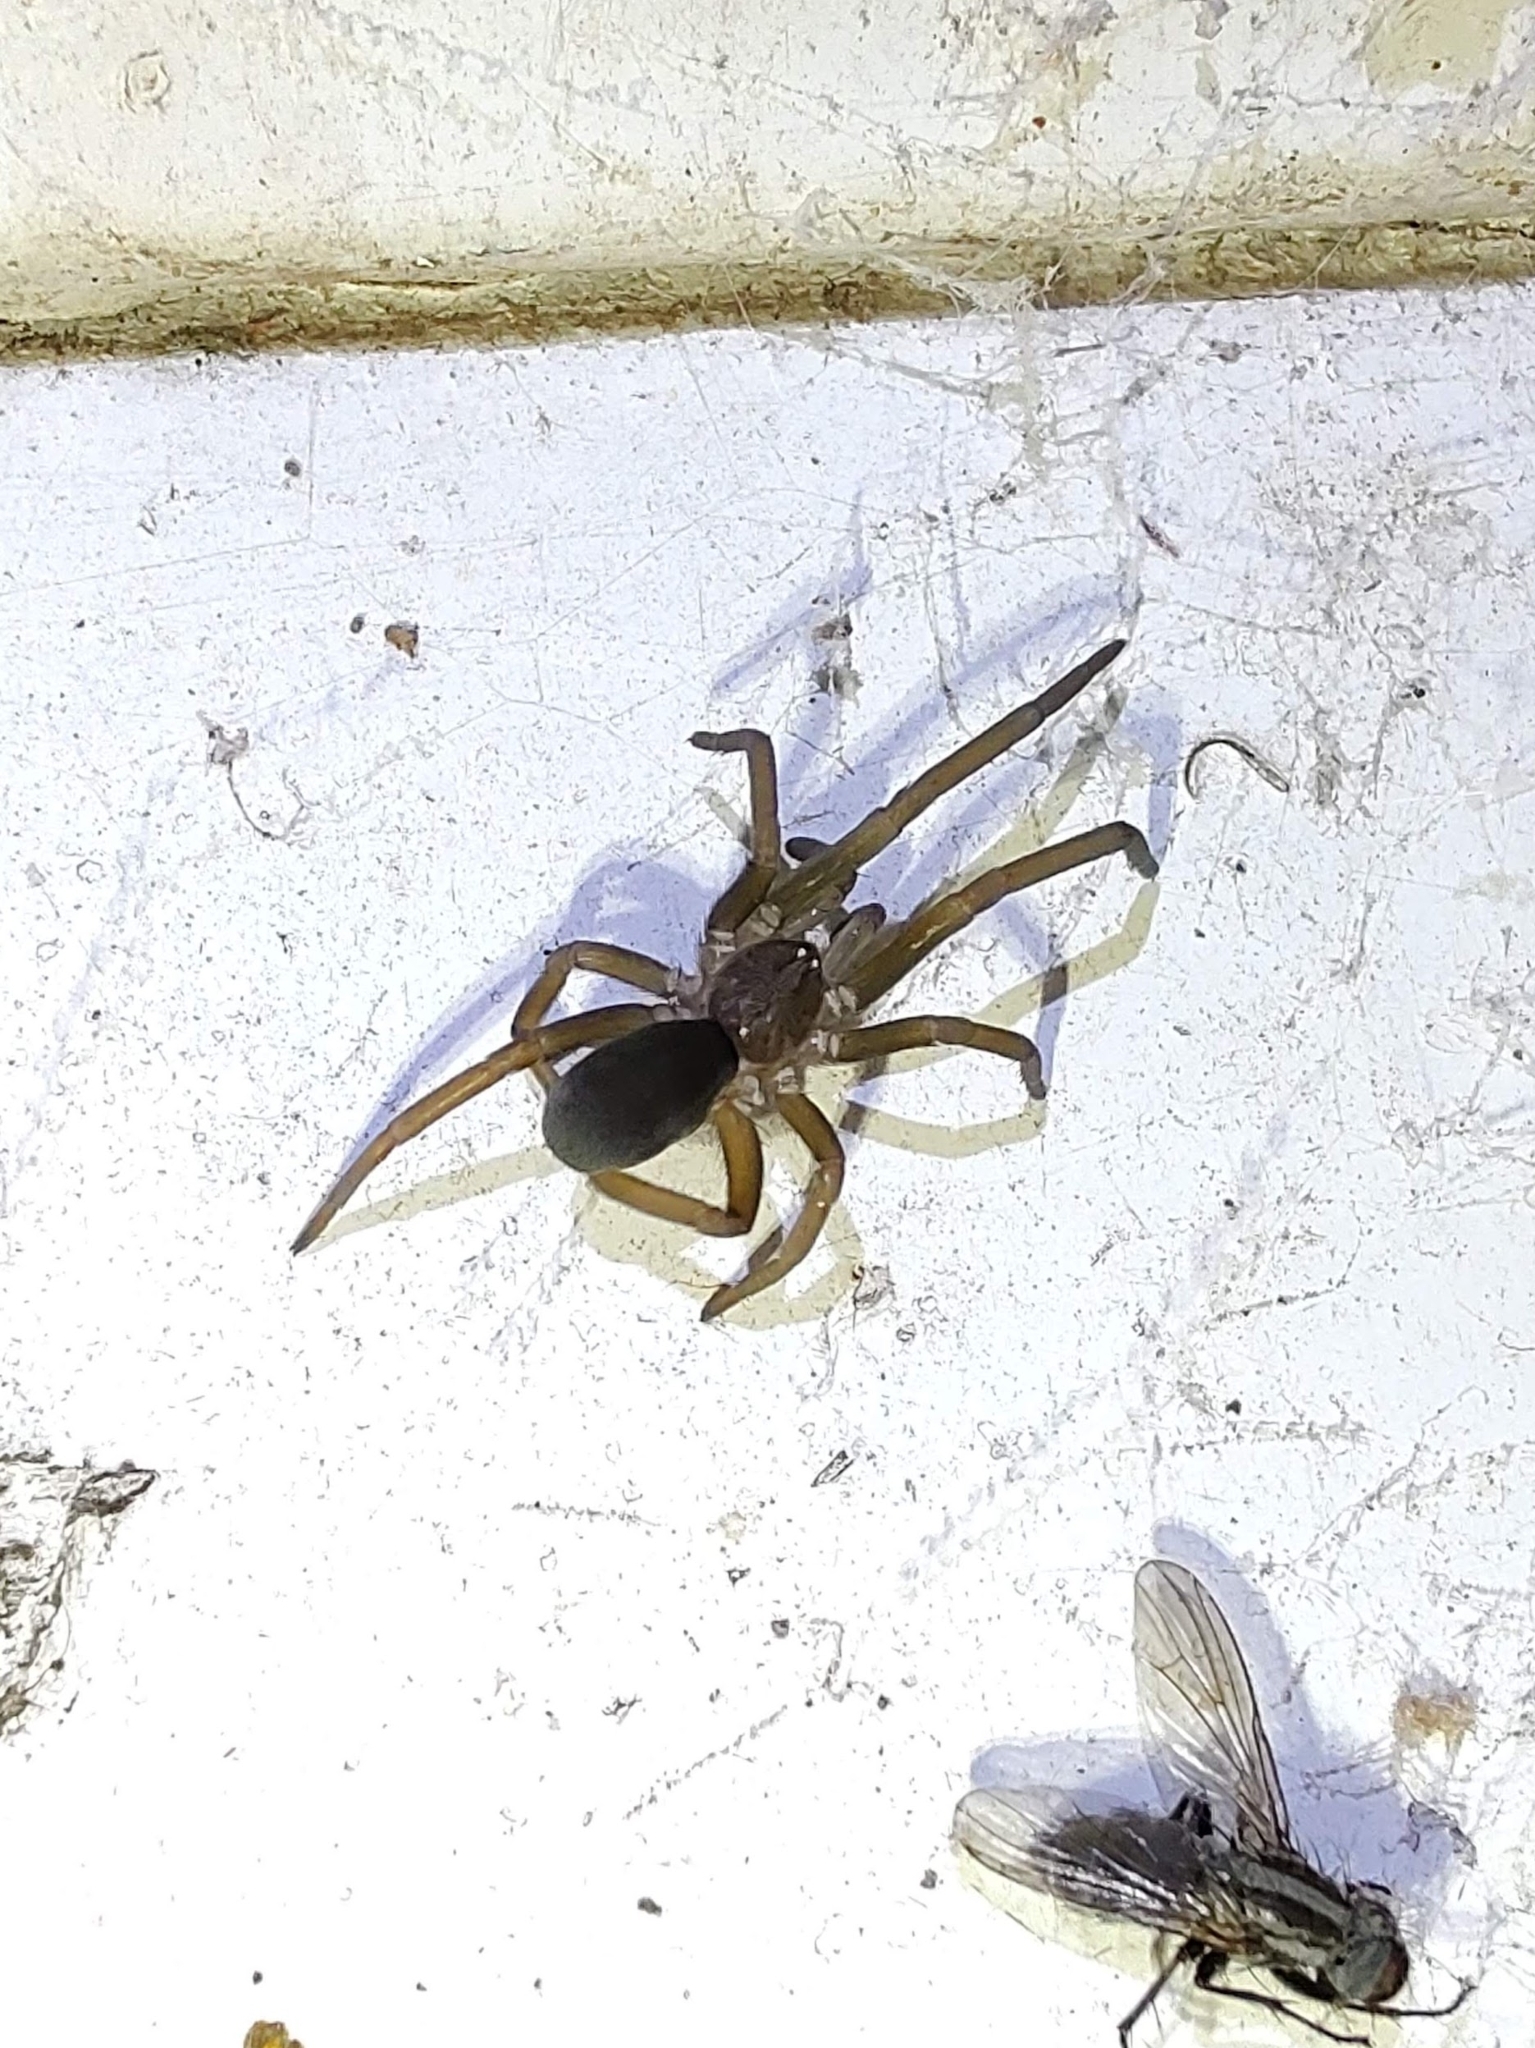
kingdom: Animalia
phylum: Arthropoda
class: Arachnida
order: Araneae
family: Filistatidae
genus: Kukulcania
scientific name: Kukulcania hibernalis
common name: Crevice weaver
